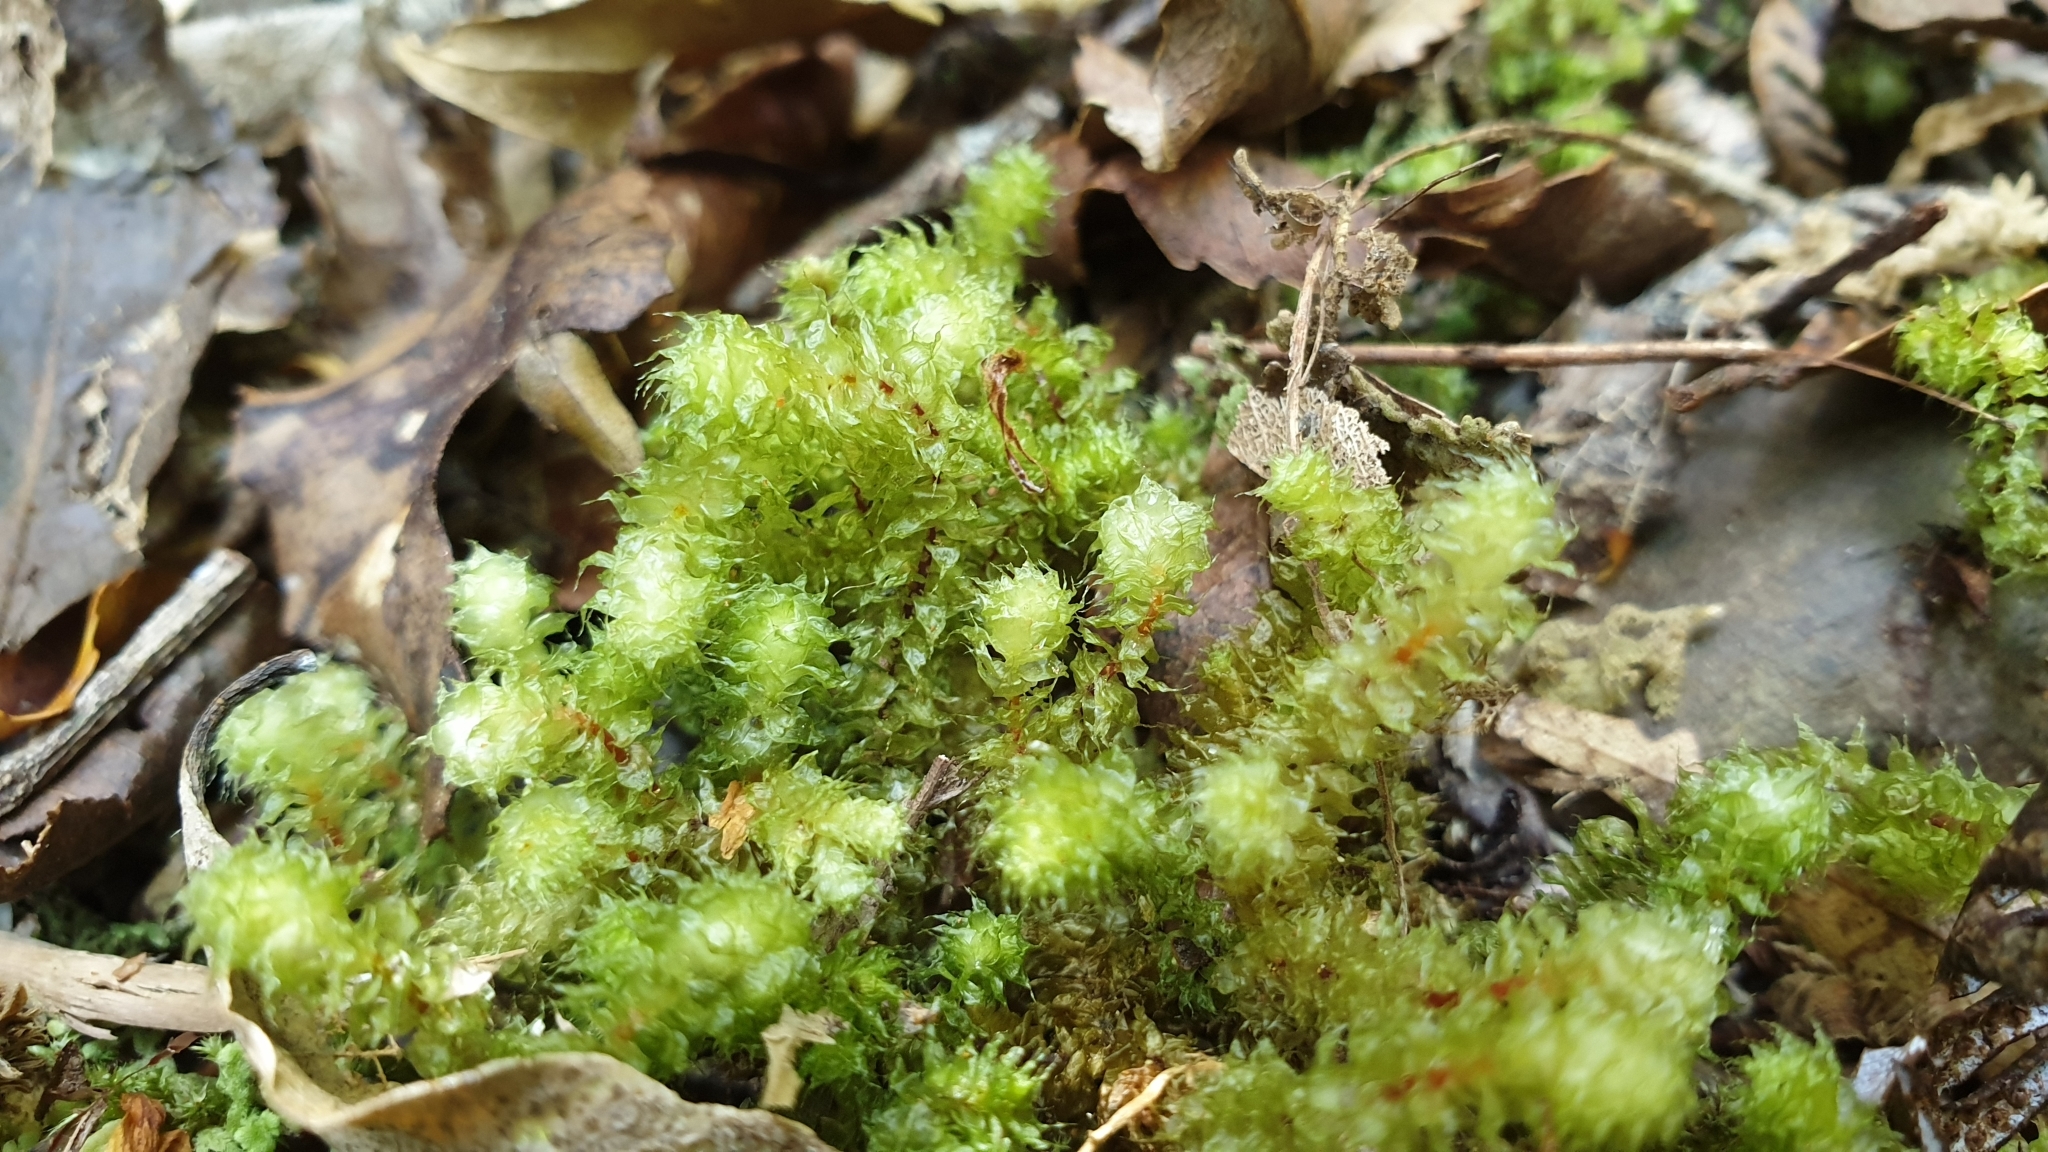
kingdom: Plantae
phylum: Bryophyta
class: Bryopsida
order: Ptychomniales
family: Ptychomniaceae
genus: Ptychomnion
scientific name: Ptychomnion aciculare
